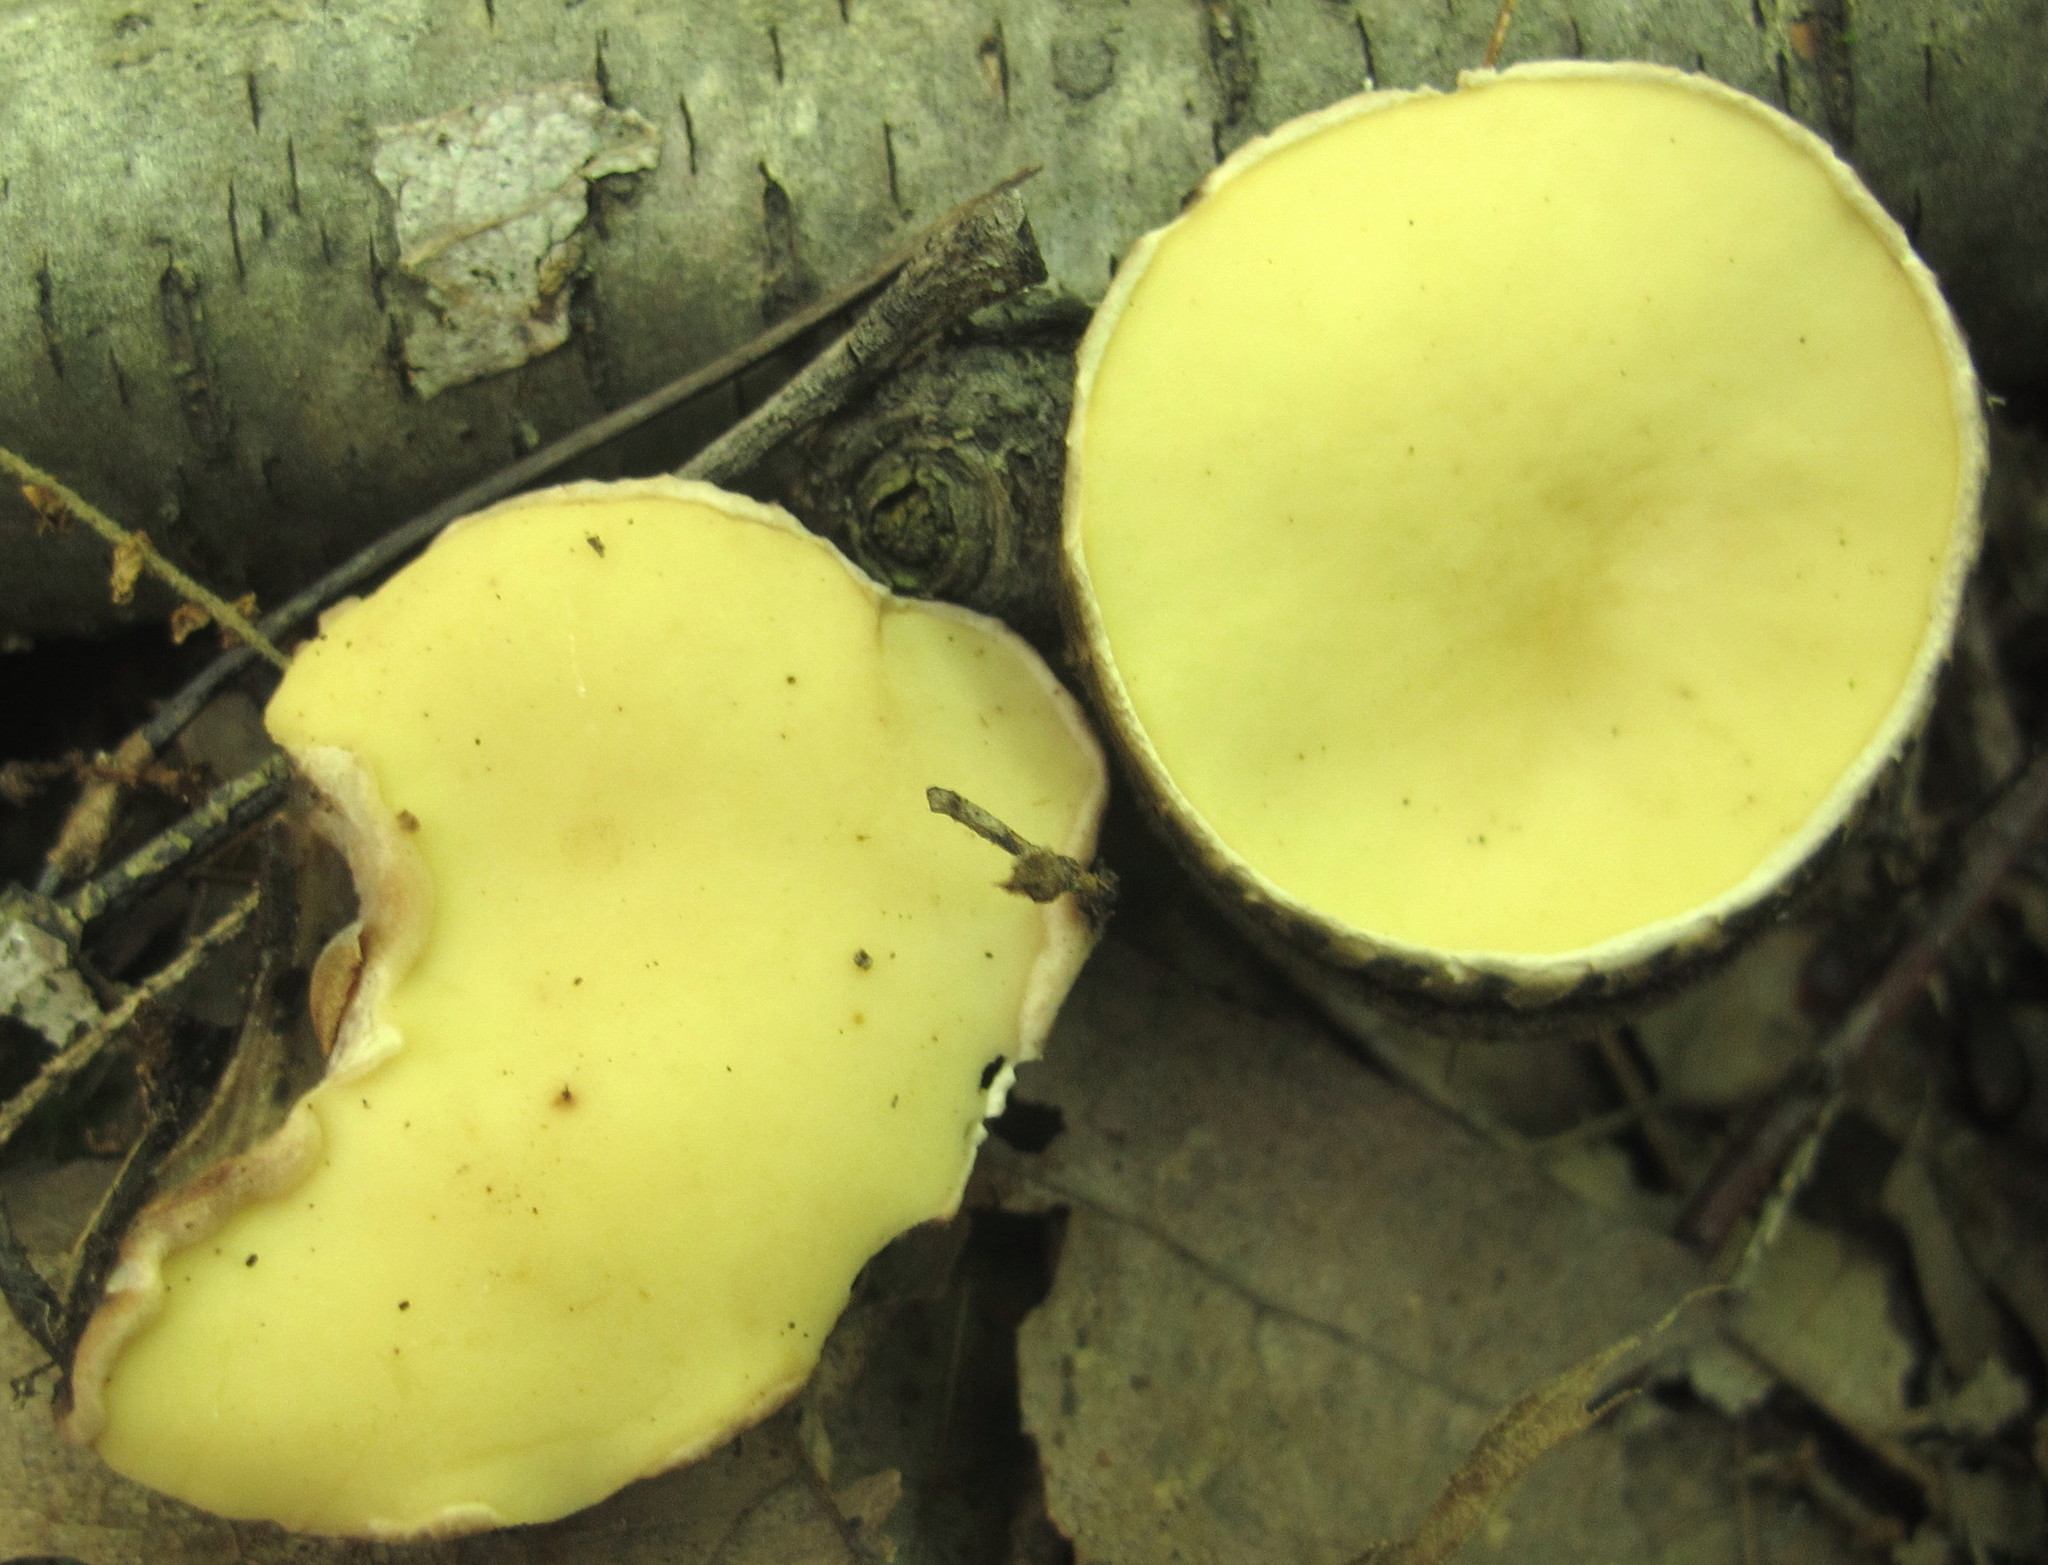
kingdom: Fungi
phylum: Ascomycota
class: Pezizomycetes
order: Pezizales
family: Chorioactidaceae
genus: Wolfina
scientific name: Wolfina aurantiopsis
